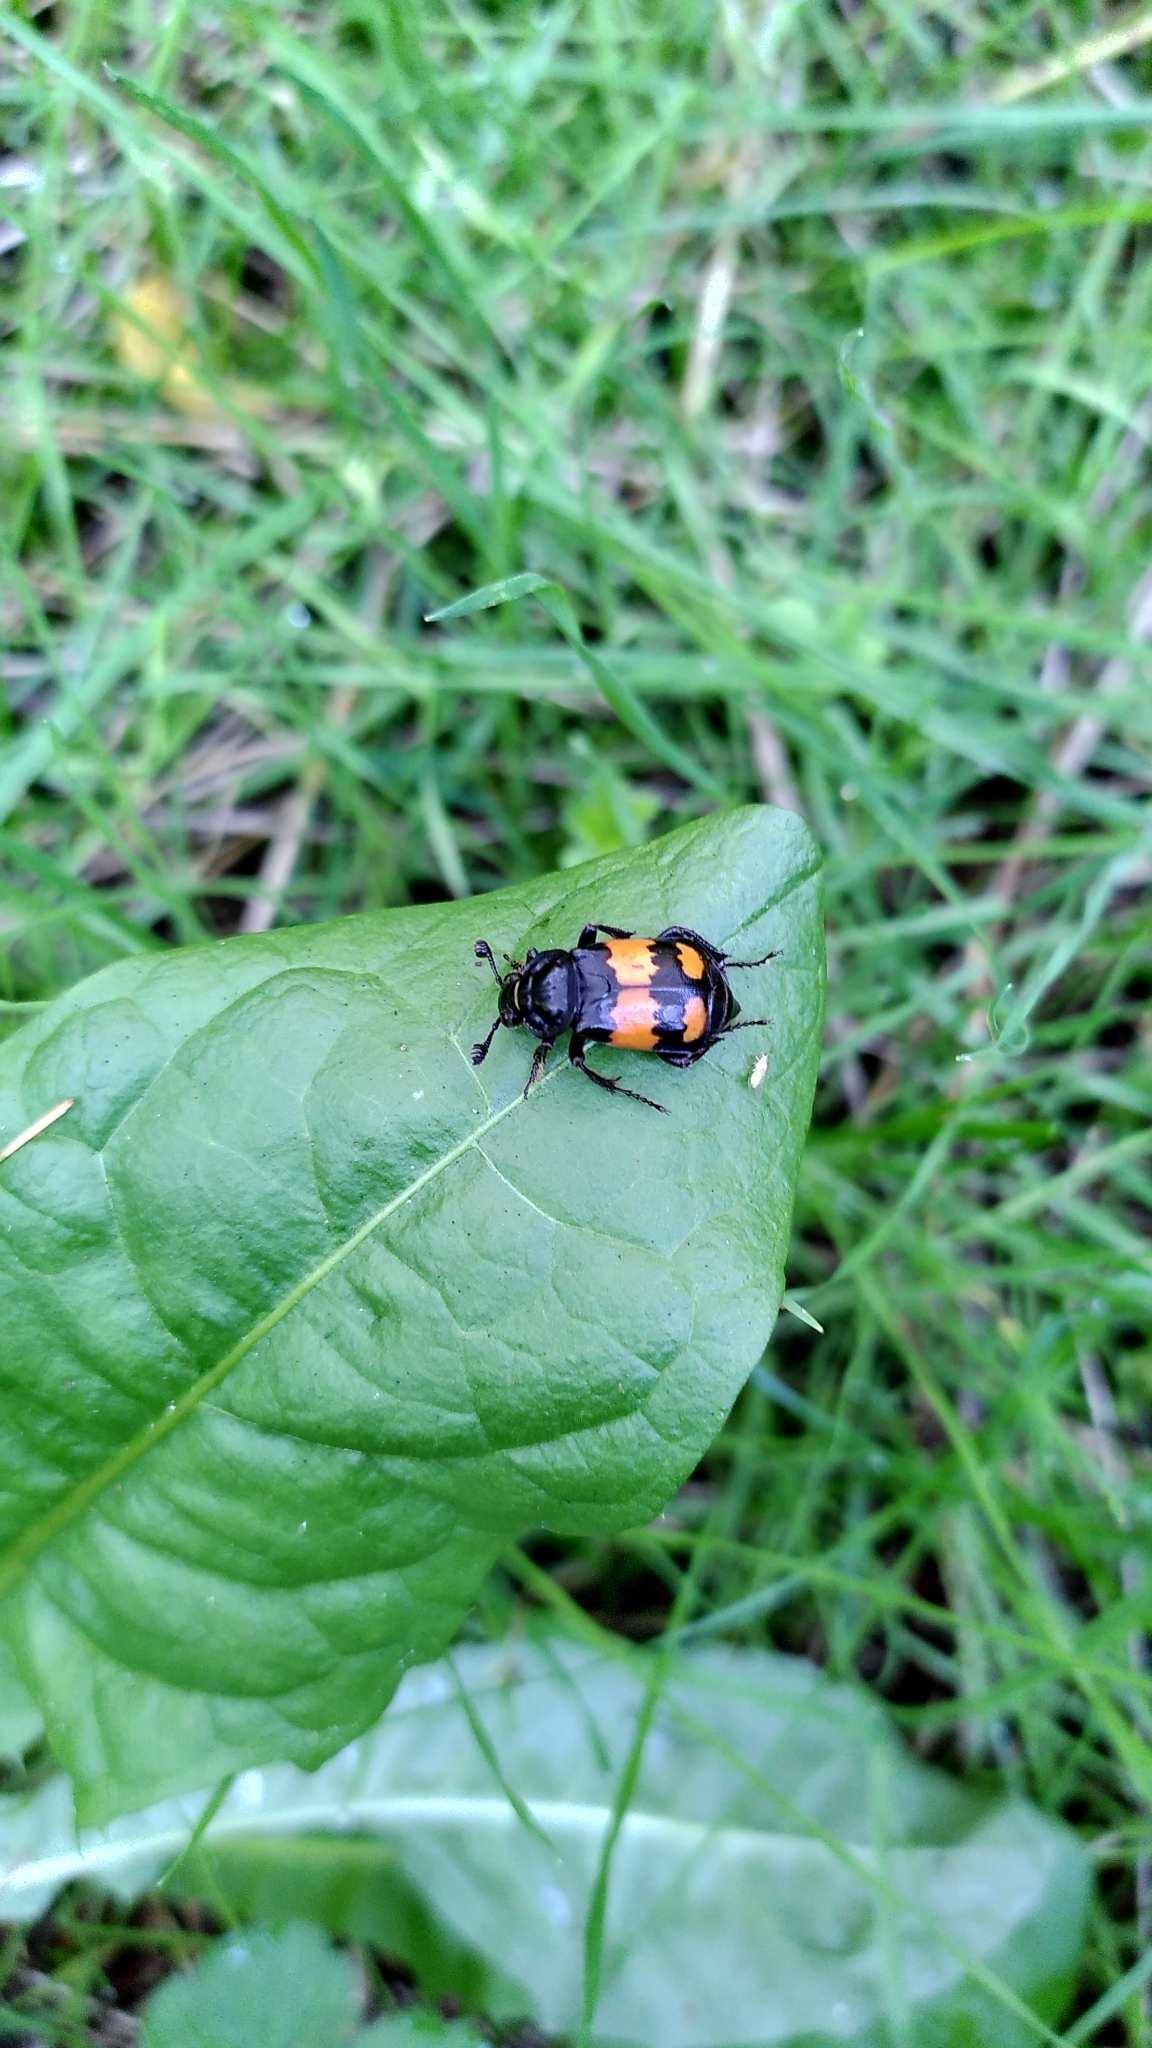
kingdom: Animalia
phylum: Arthropoda
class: Insecta
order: Coleoptera
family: Staphylinidae
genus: Nicrophorus
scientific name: Nicrophorus vespilloides
